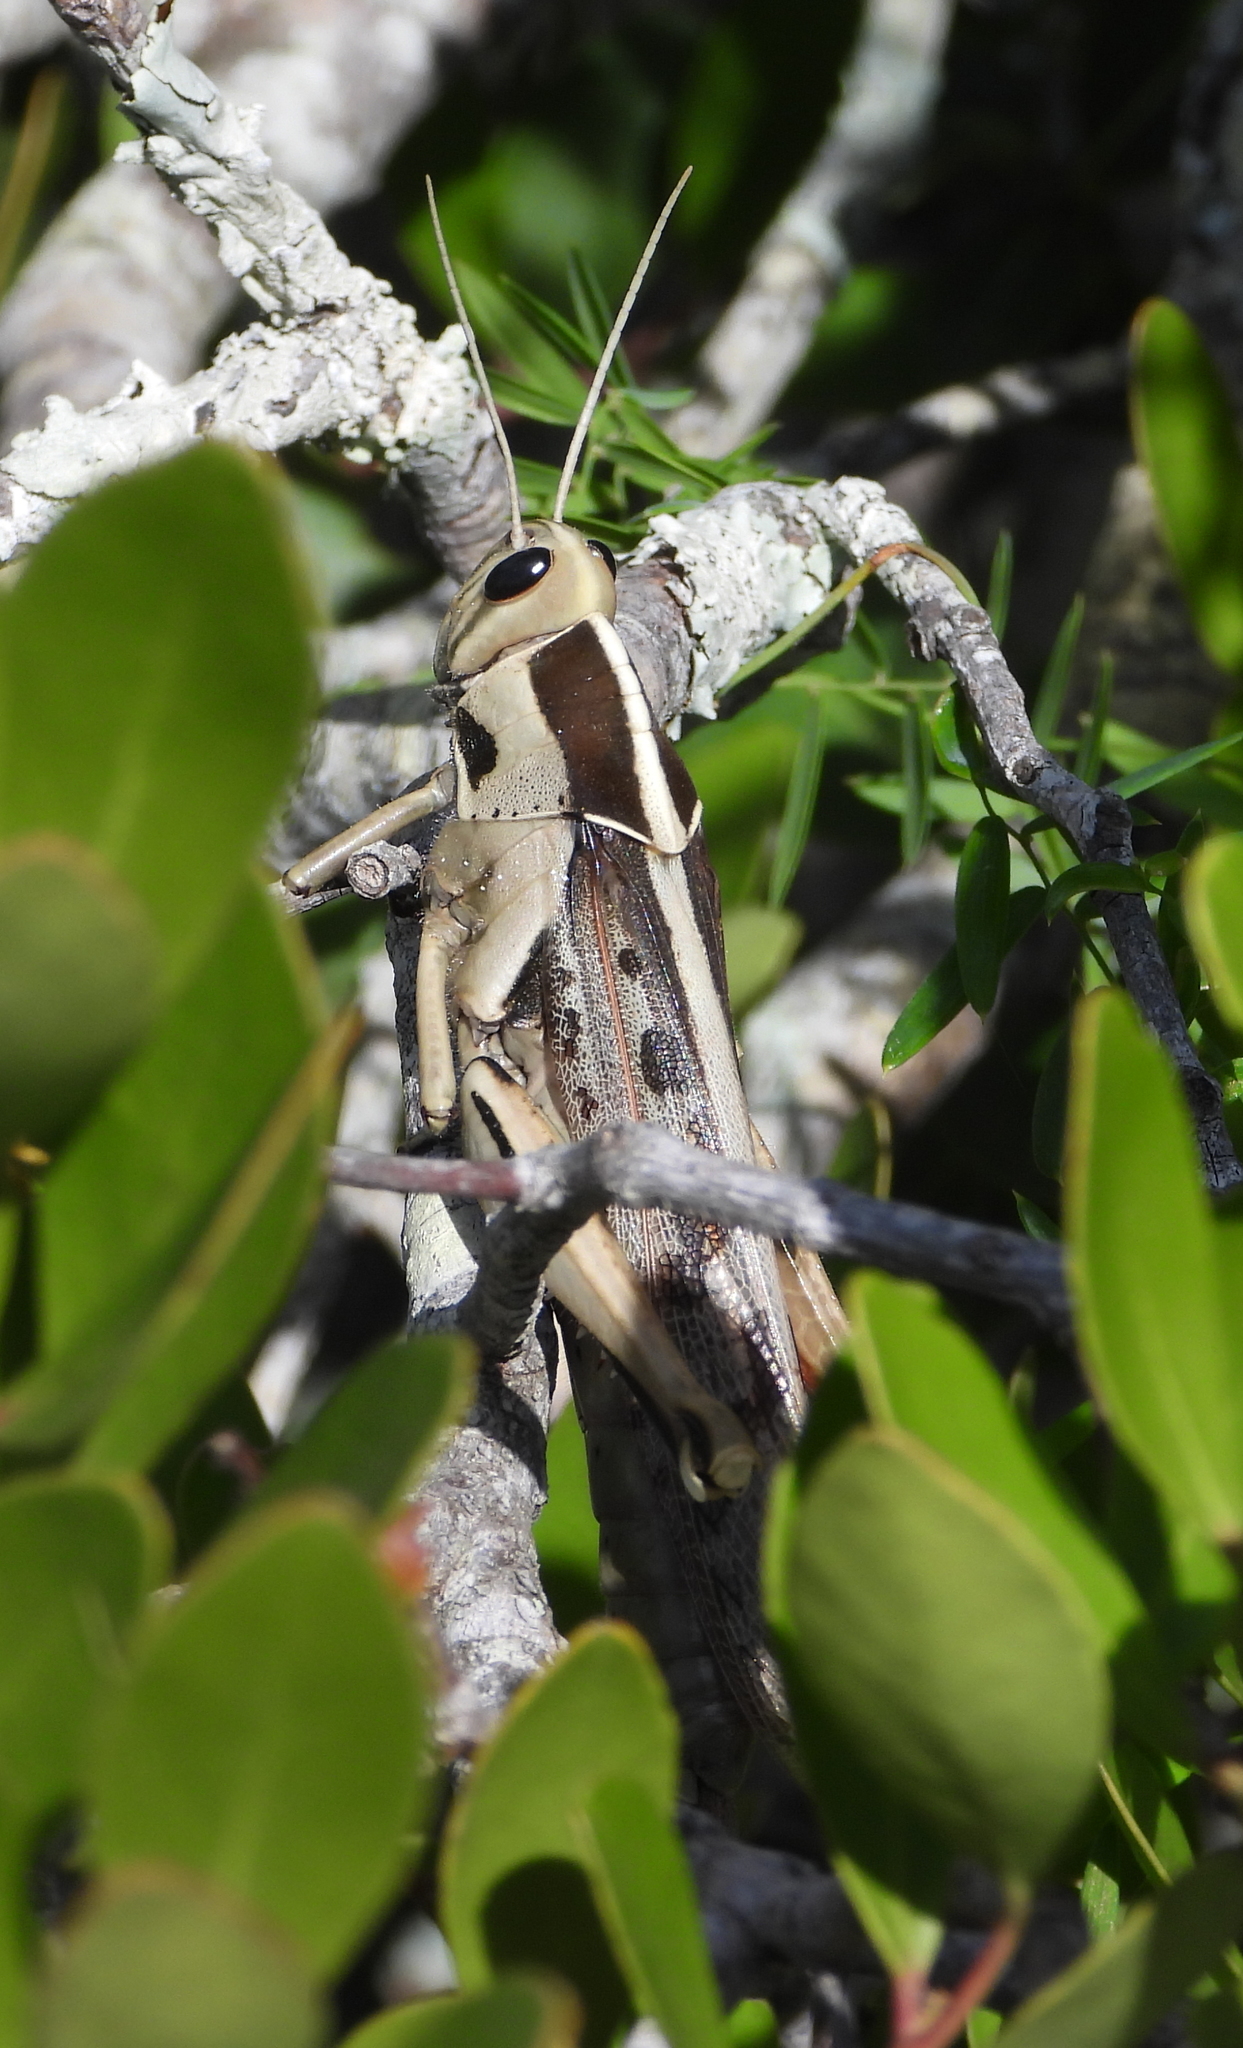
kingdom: Animalia
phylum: Arthropoda
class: Insecta
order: Orthoptera
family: Acrididae
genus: Acanthacris
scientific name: Acanthacris ruficornis
